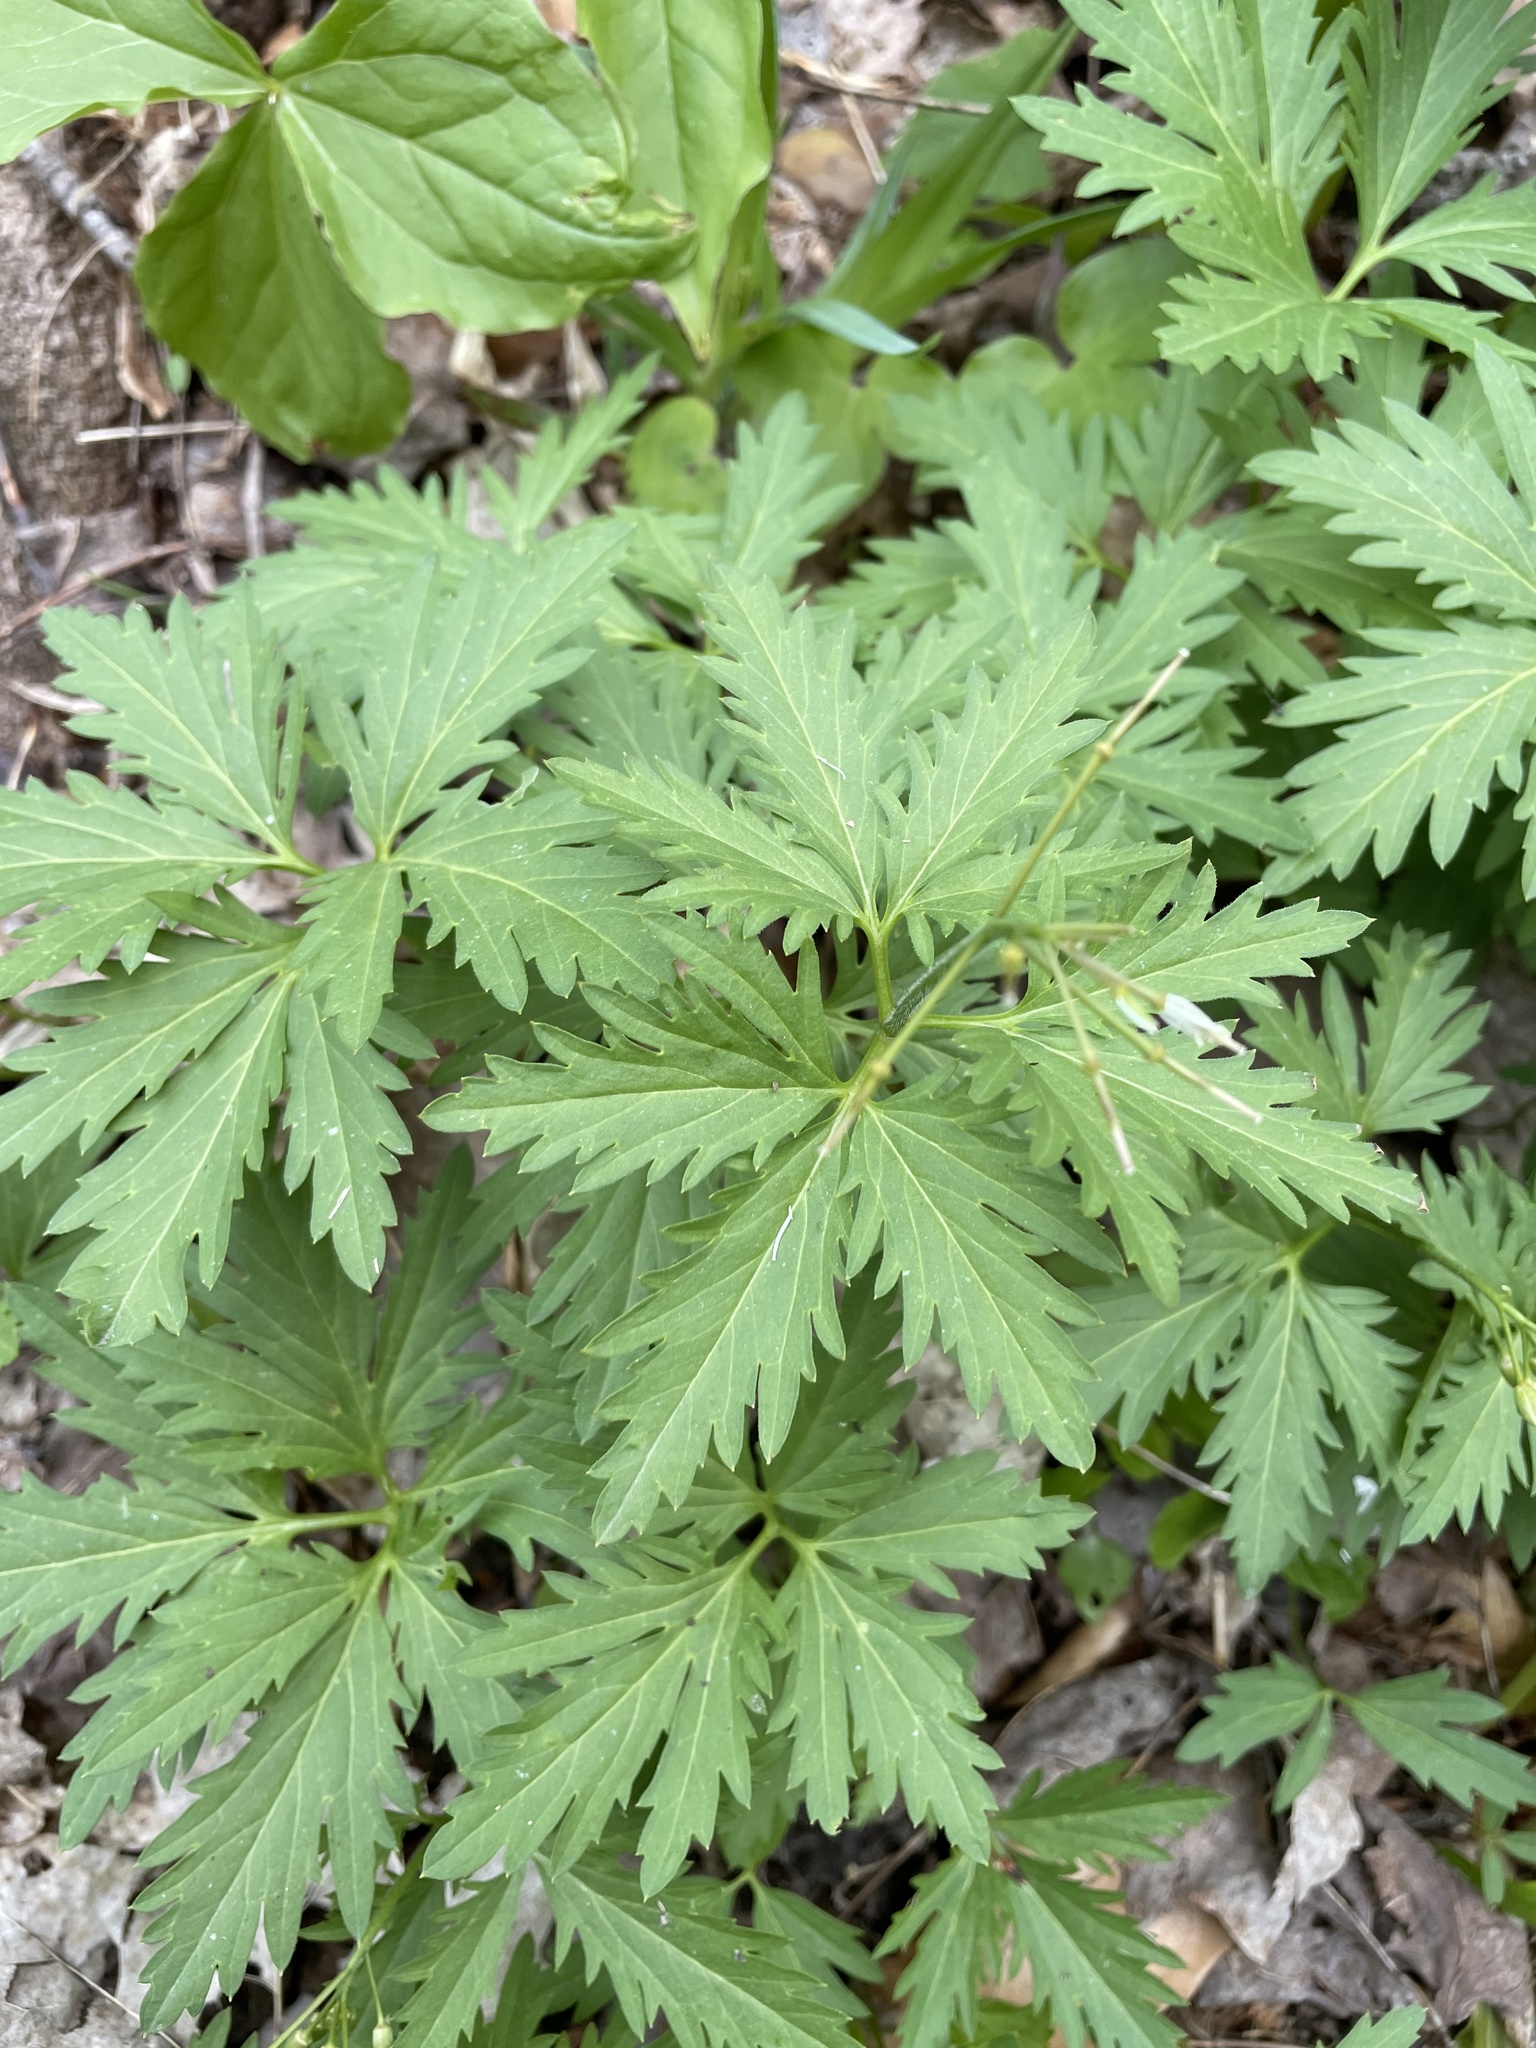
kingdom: Plantae
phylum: Tracheophyta
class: Magnoliopsida
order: Brassicales
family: Brassicaceae
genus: Cardamine
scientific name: Cardamine concatenata
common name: Cut-leaf toothcup
